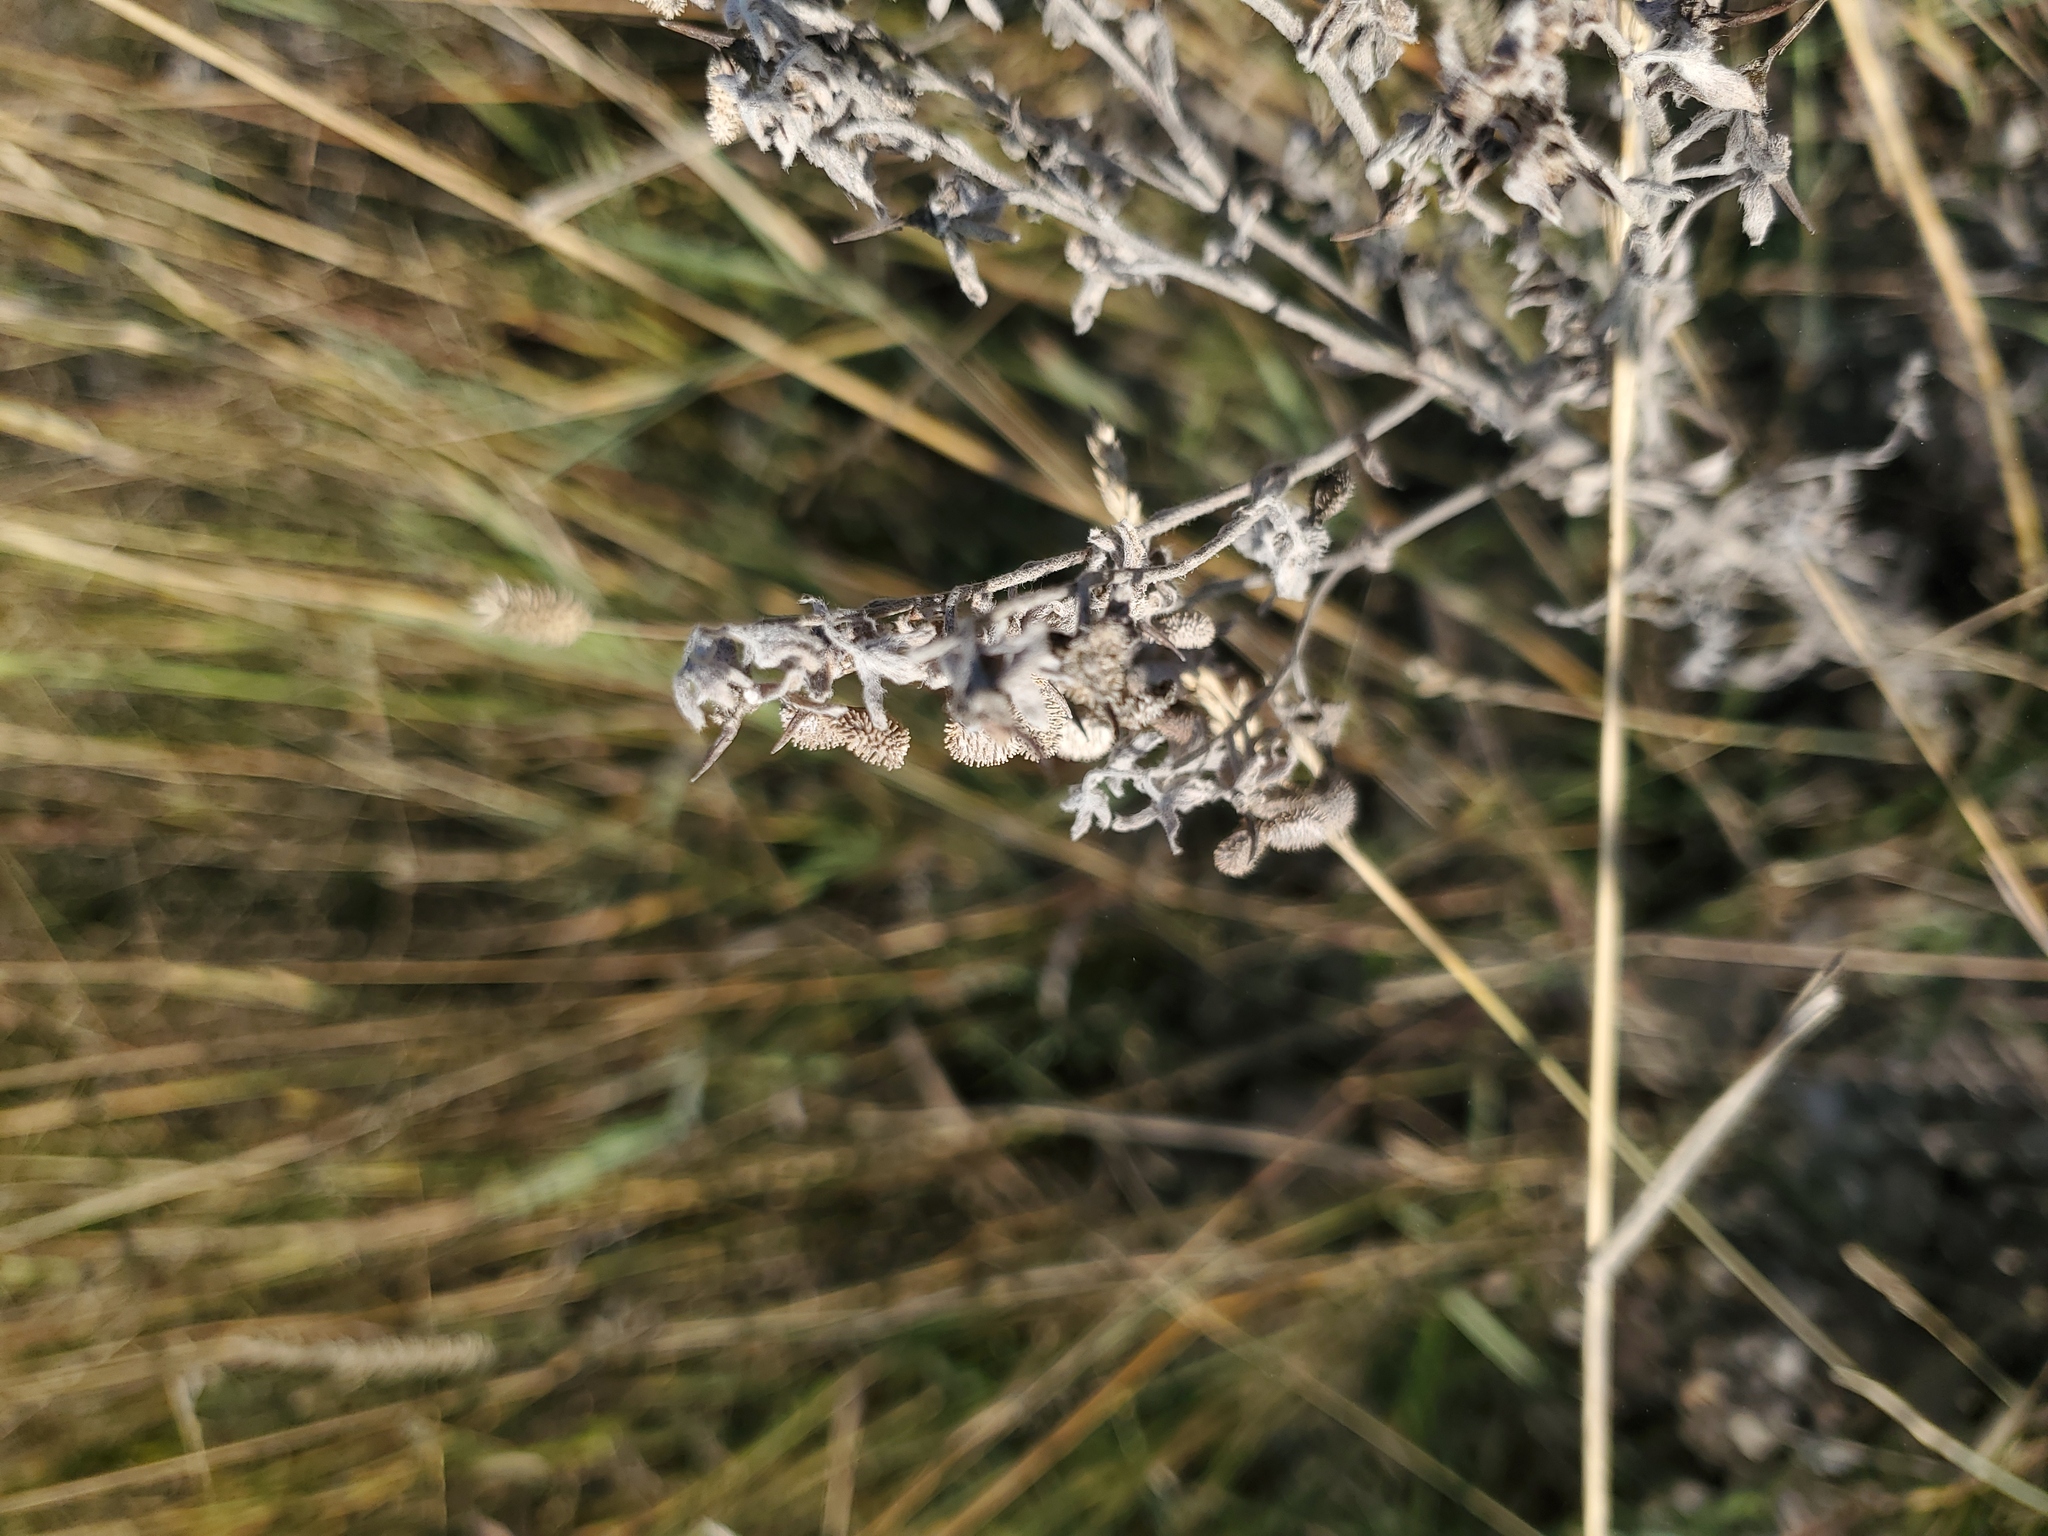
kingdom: Plantae
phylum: Tracheophyta
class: Magnoliopsida
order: Boraginales
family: Boraginaceae
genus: Cynoglossum
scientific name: Cynoglossum officinale
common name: Hound's-tongue
